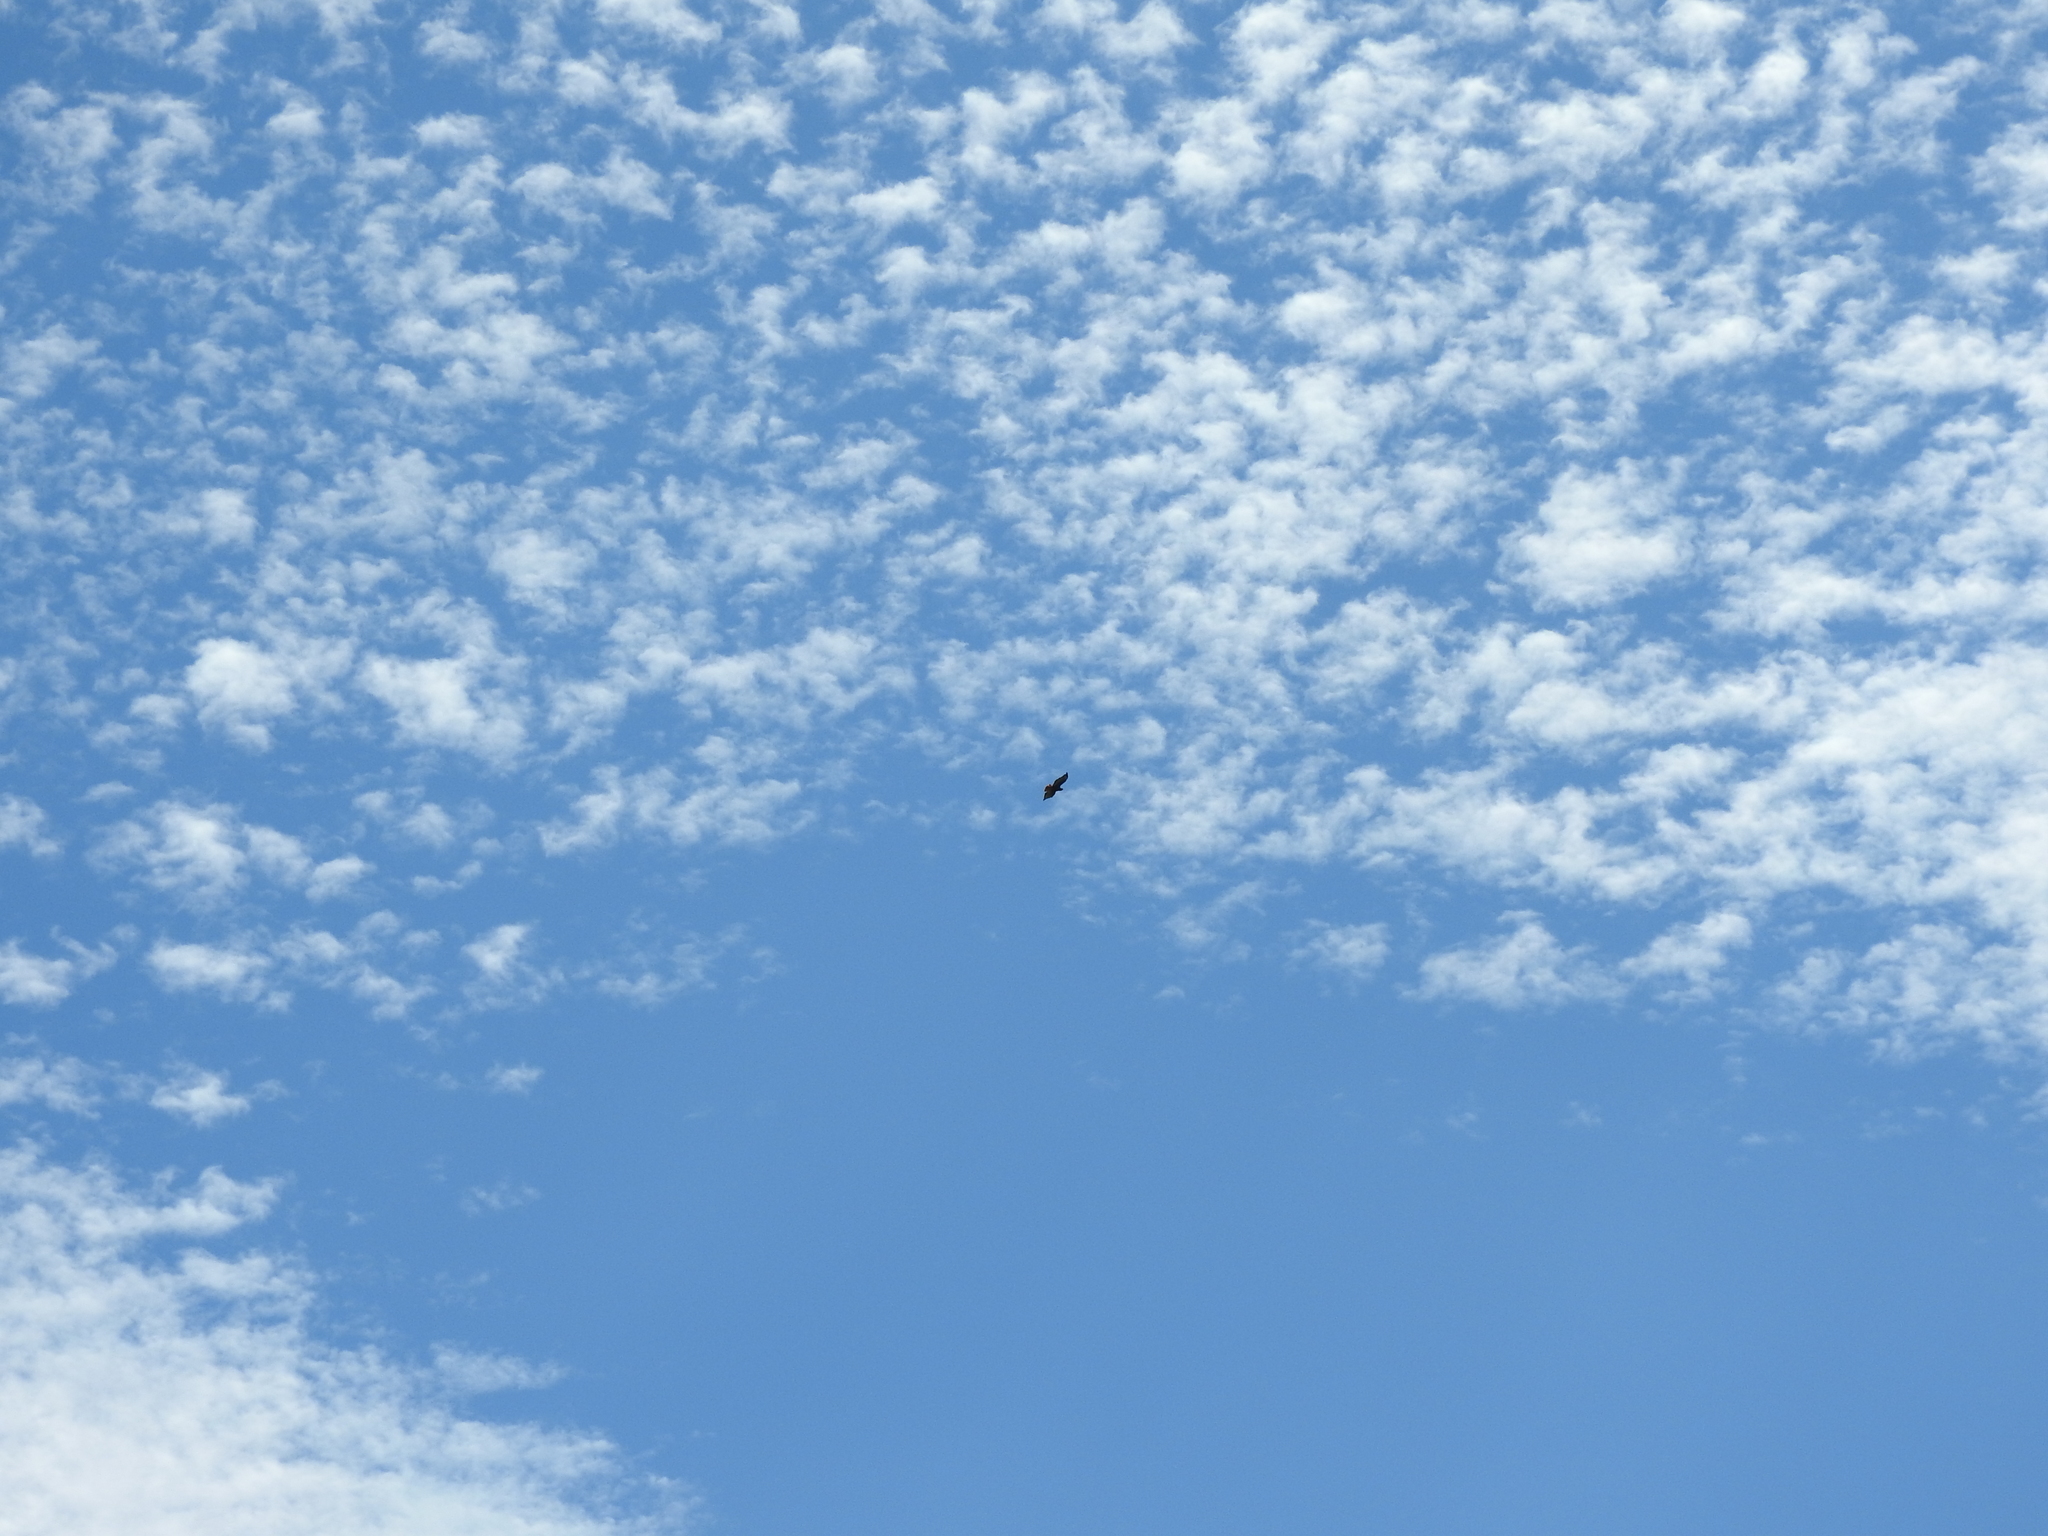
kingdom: Animalia
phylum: Chordata
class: Aves
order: Accipitriformes
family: Accipitridae
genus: Buteo
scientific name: Buteo jamaicensis
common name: Red-tailed hawk
